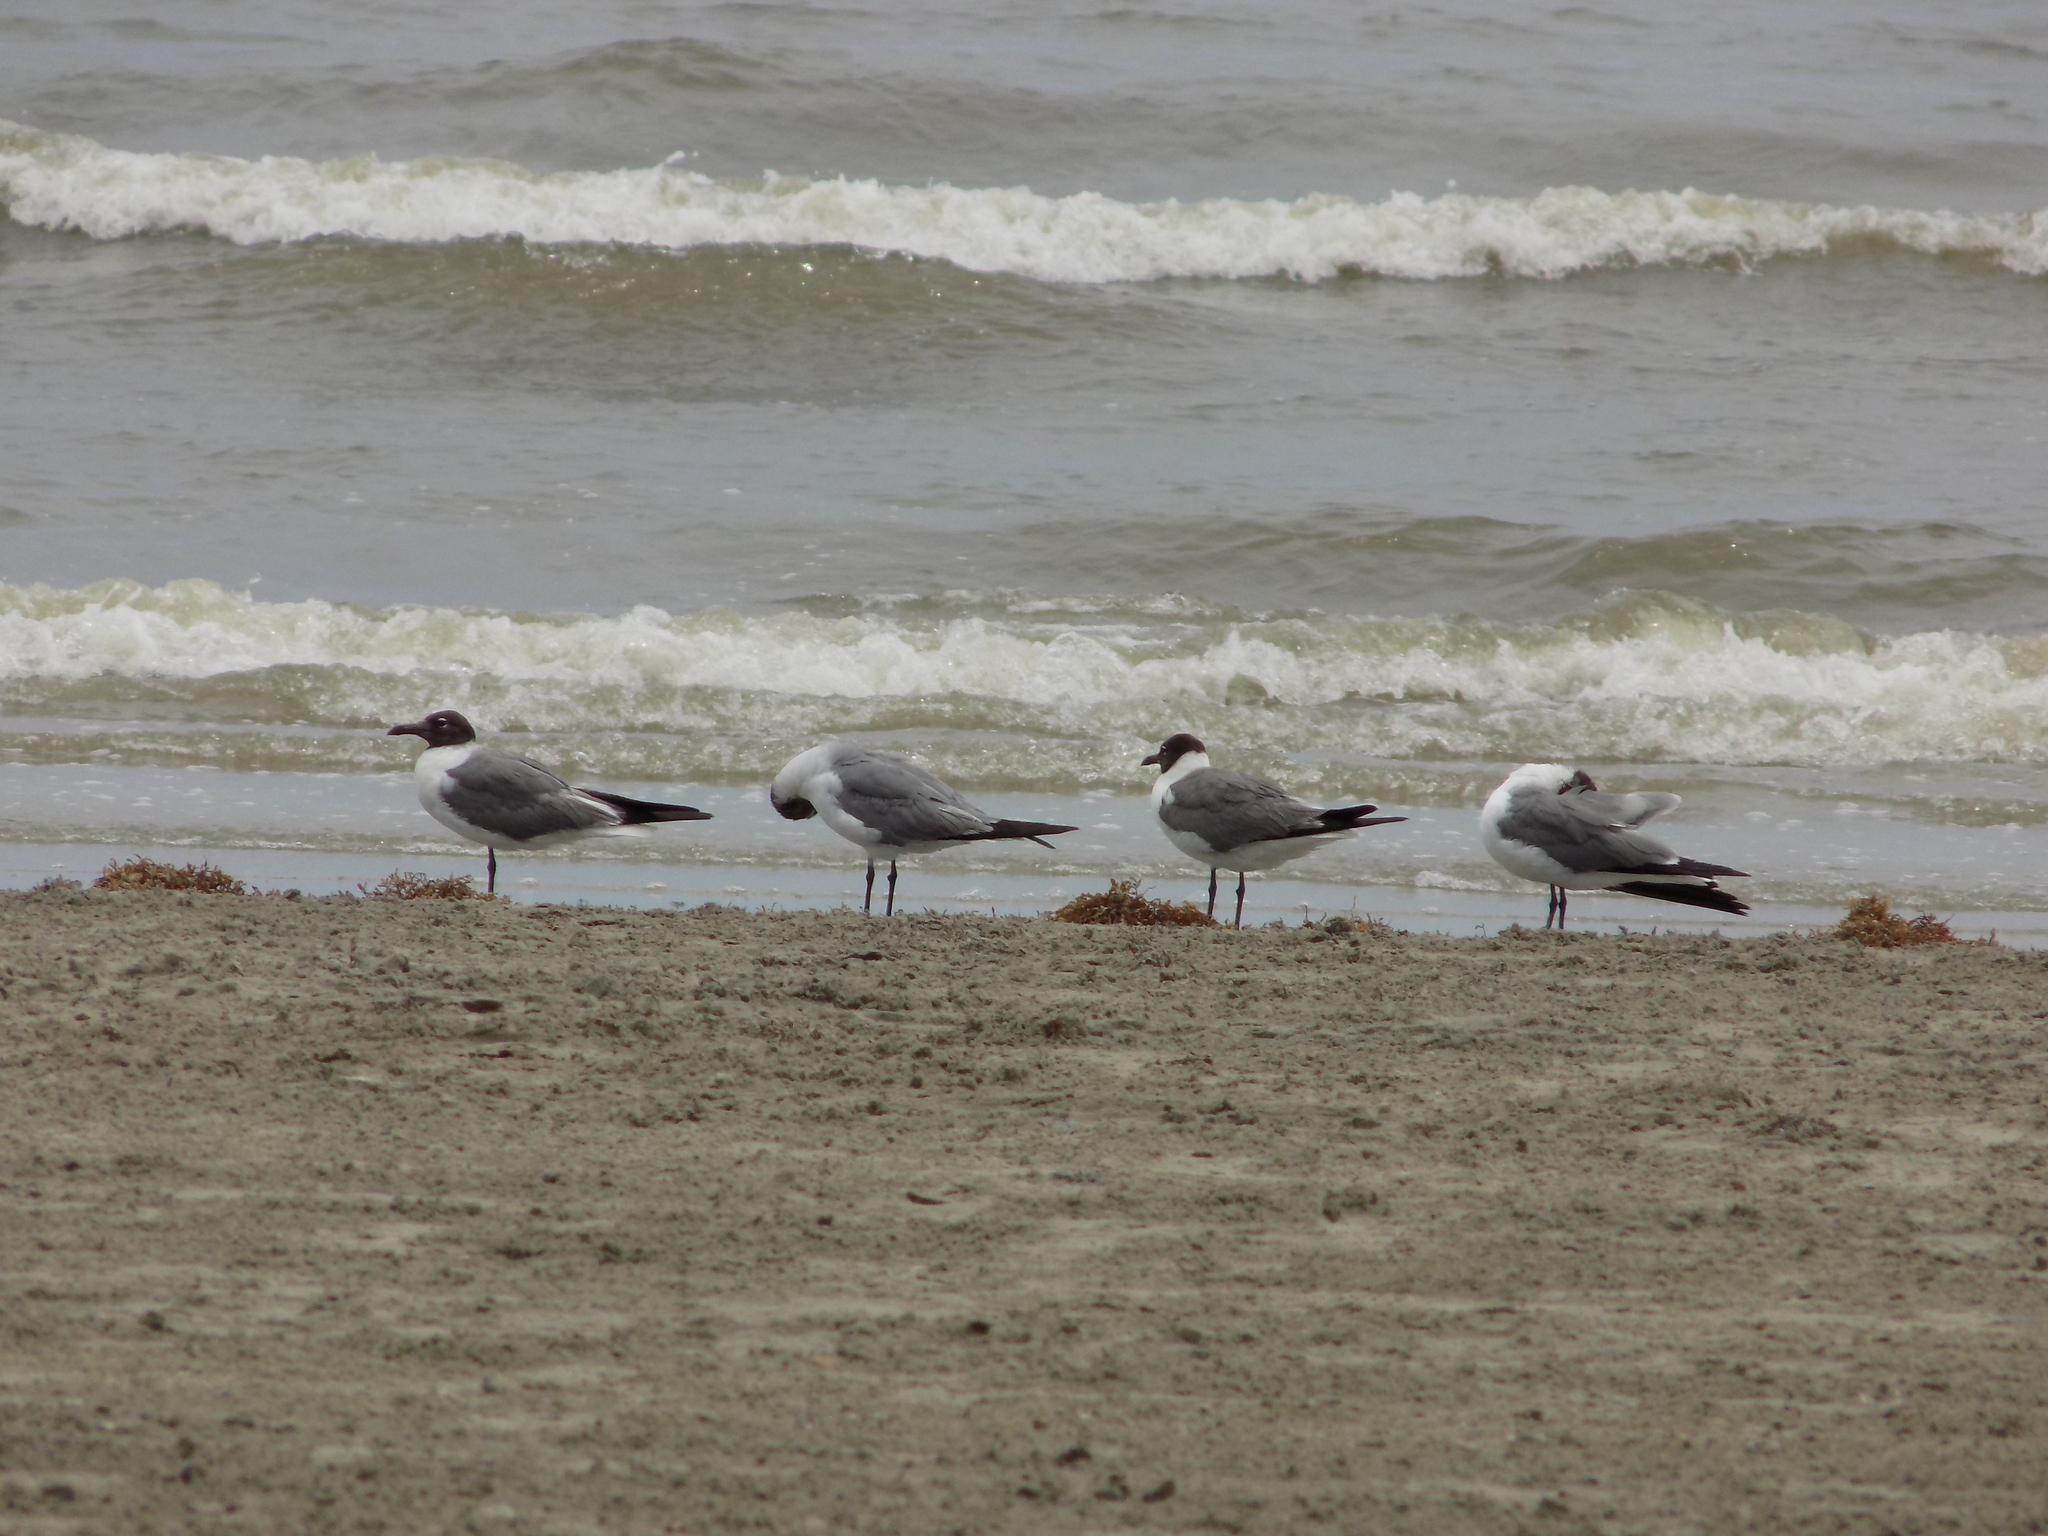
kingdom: Animalia
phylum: Chordata
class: Aves
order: Charadriiformes
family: Laridae
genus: Leucophaeus
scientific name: Leucophaeus atricilla
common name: Laughing gull
